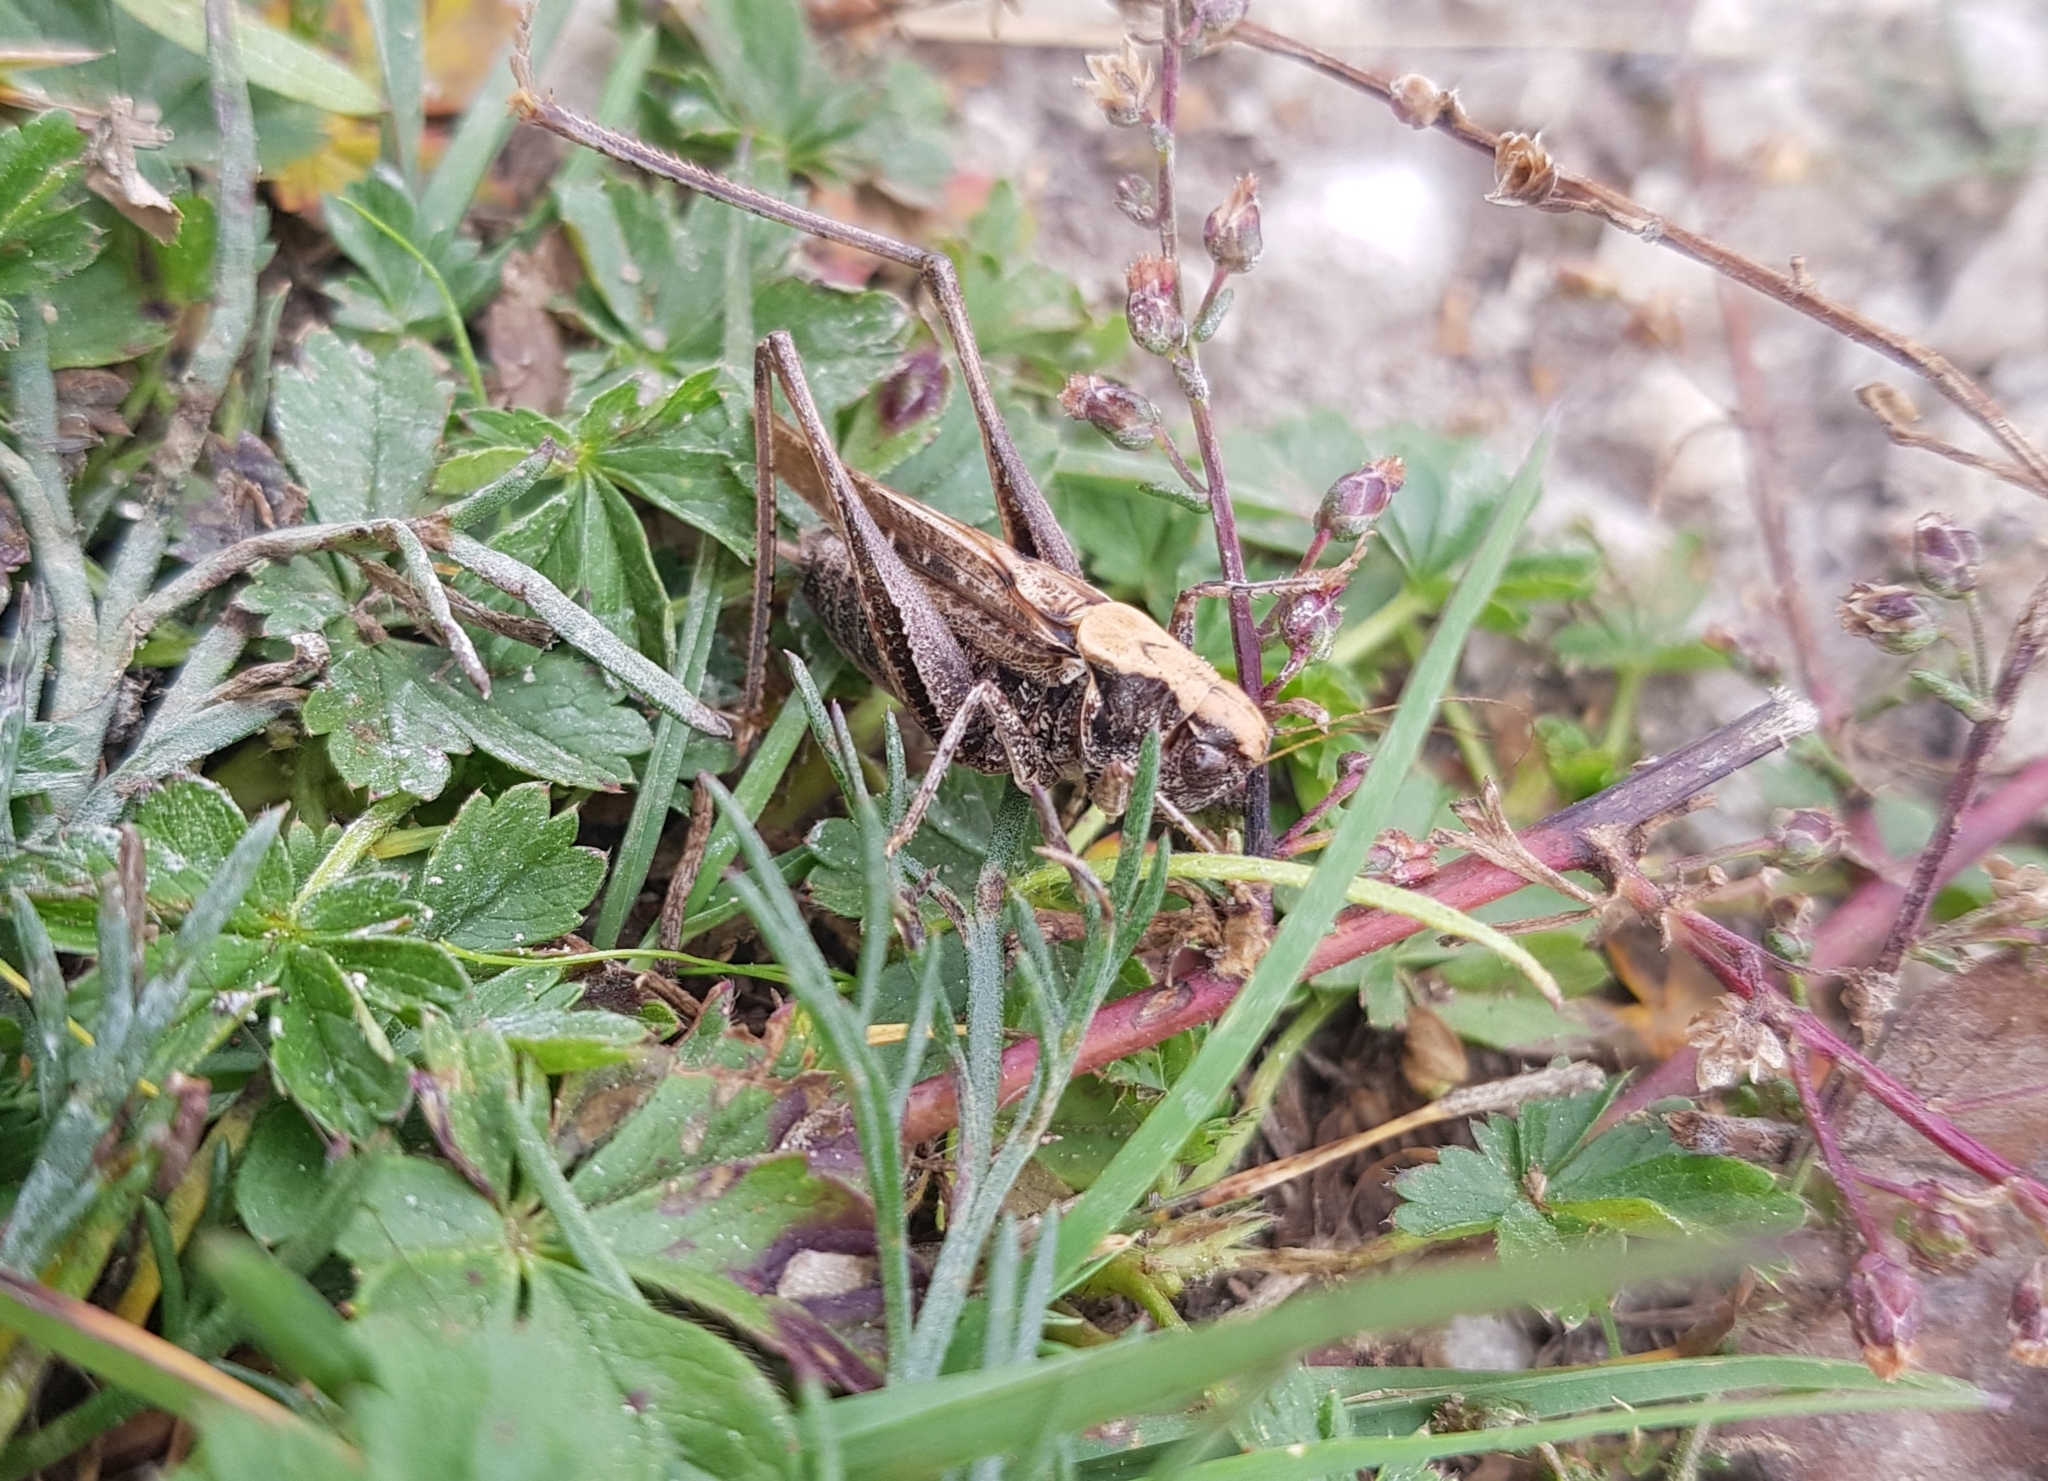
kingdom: Animalia
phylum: Arthropoda
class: Insecta
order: Orthoptera
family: Tettigoniidae
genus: Platycleis
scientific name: Platycleis albopunctata
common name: Grey bush-cricket
